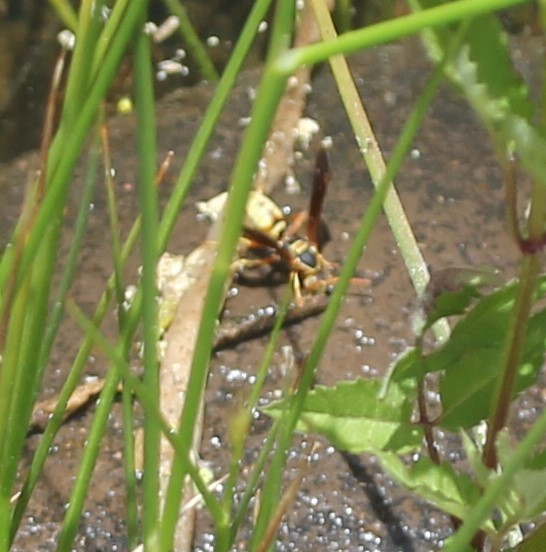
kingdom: Animalia
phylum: Arthropoda
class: Insecta
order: Hymenoptera
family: Eumenidae
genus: Polistes
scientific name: Polistes aurifer
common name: Paper wasp
